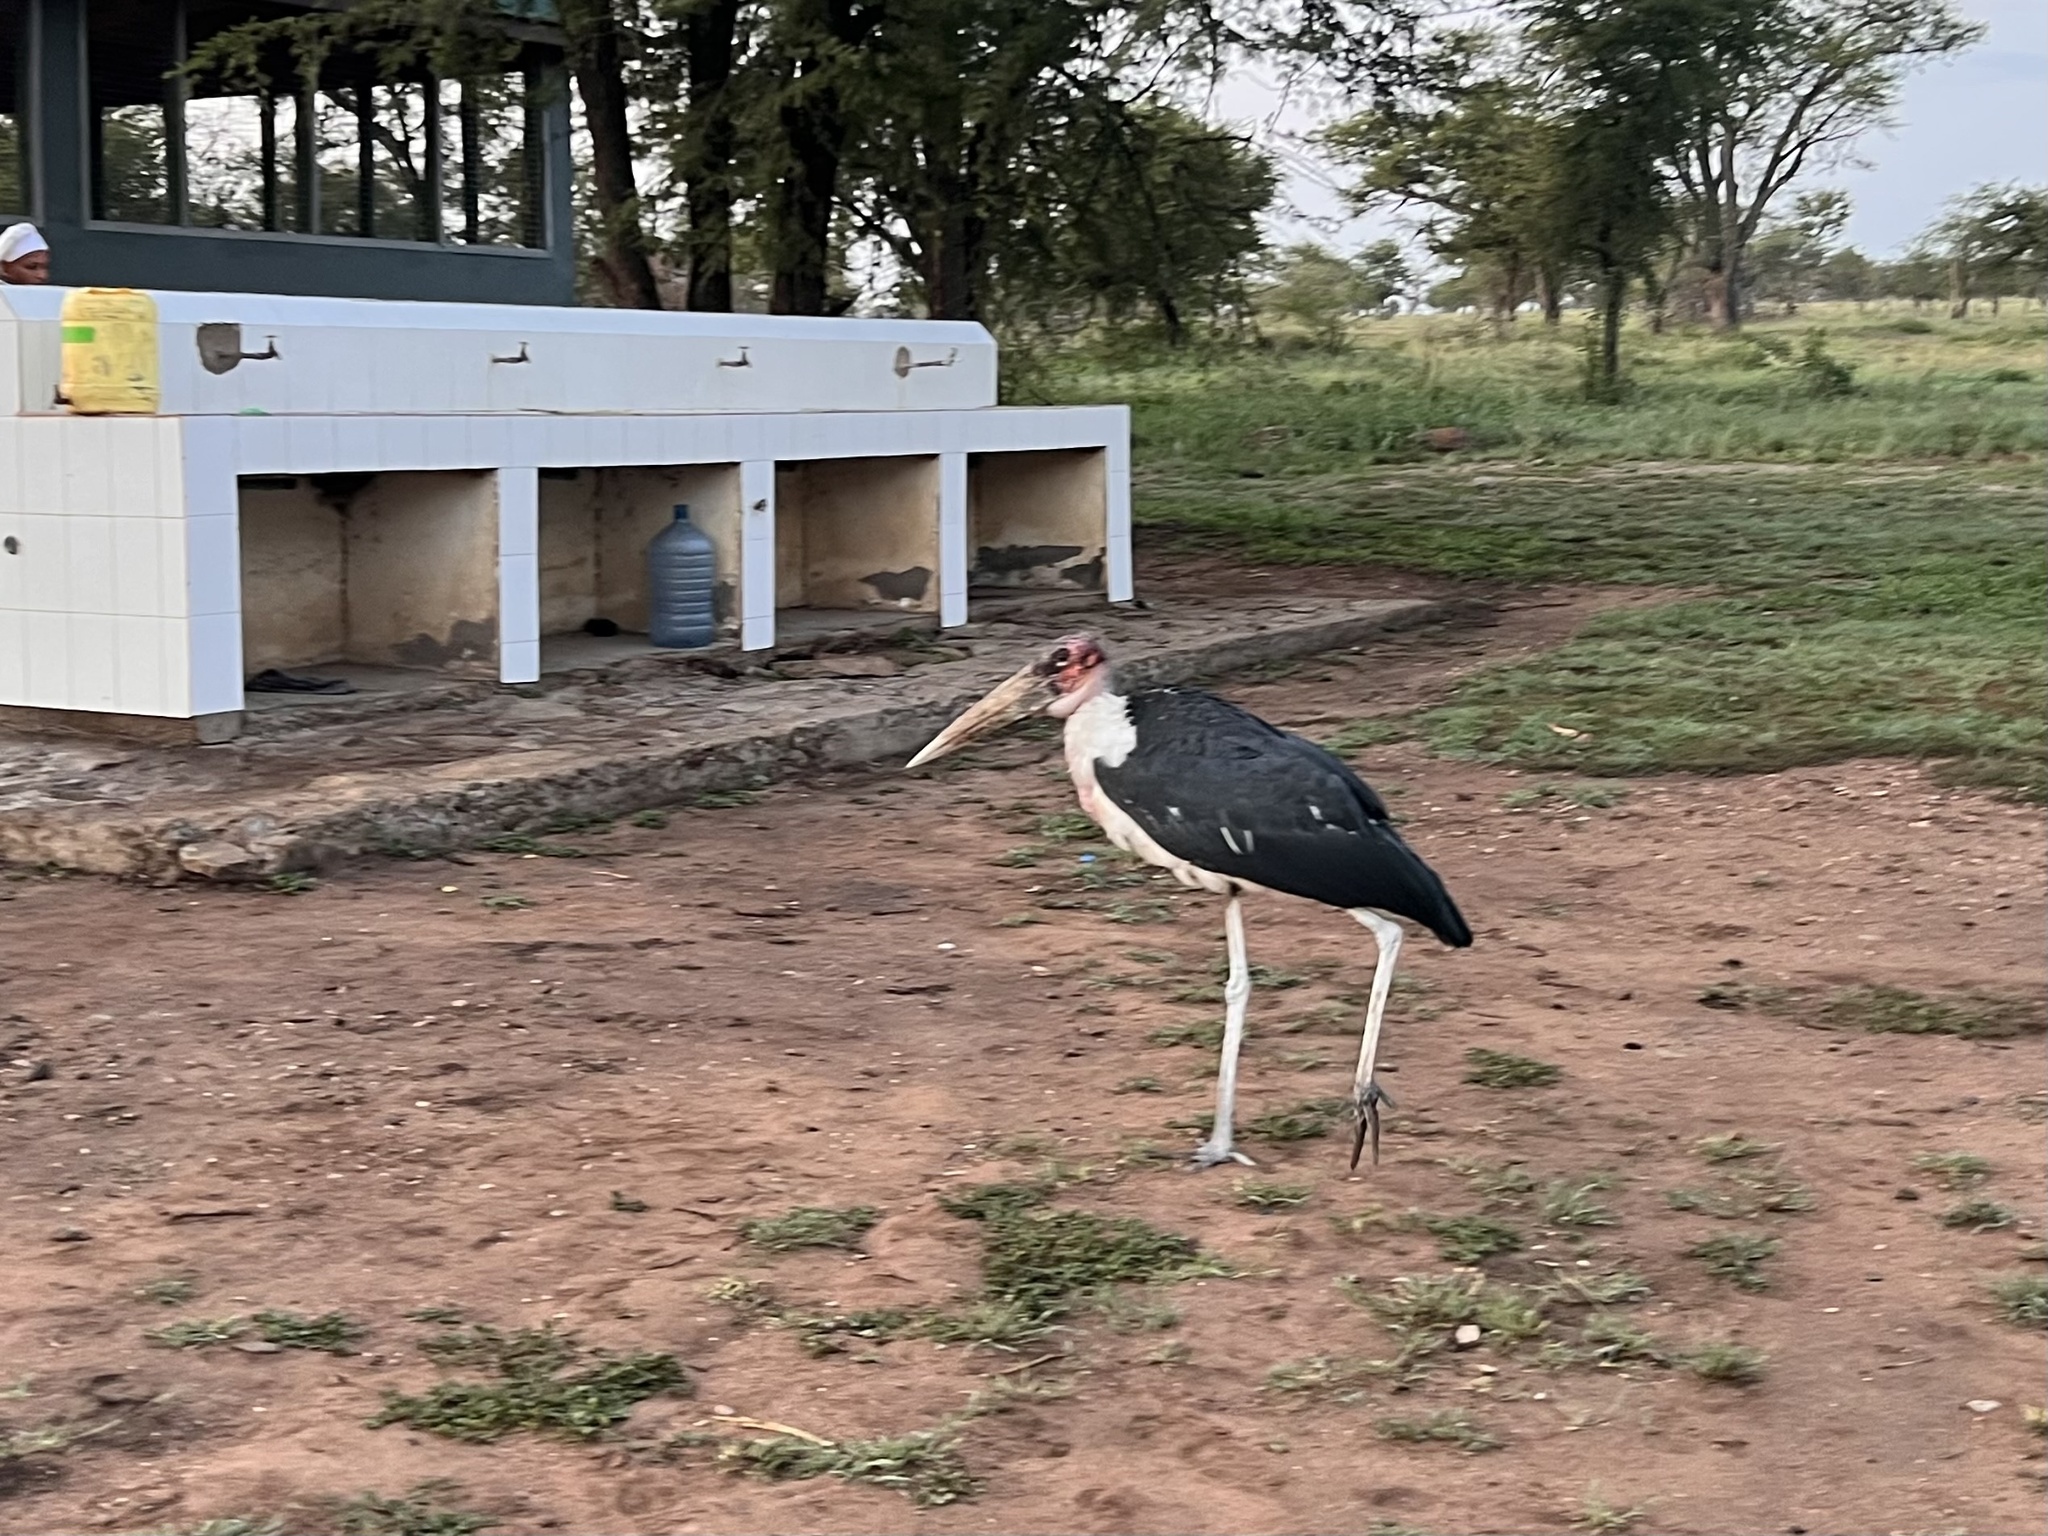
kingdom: Animalia
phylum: Chordata
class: Aves
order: Ciconiiformes
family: Ciconiidae
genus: Leptoptilos
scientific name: Leptoptilos crumenifer
